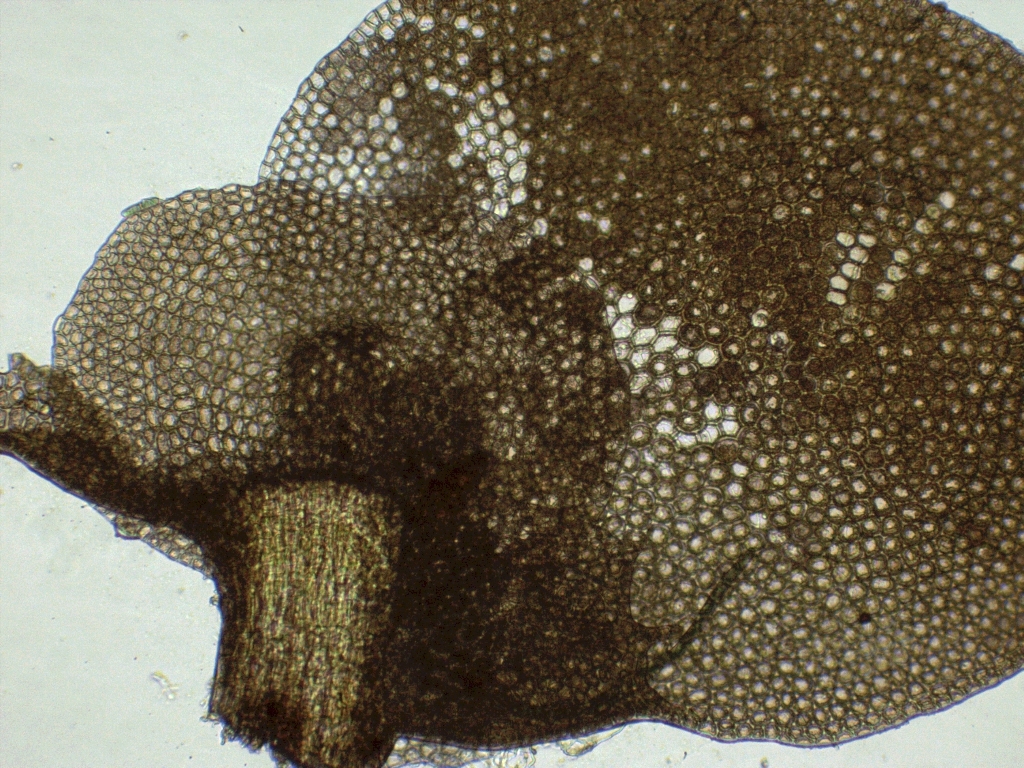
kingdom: Plantae
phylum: Marchantiophyta
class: Jungermanniopsida
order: Porellales
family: Lejeuneaceae
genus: Marchesinia
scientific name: Marchesinia mackaii
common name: Mackay's pouncewort
